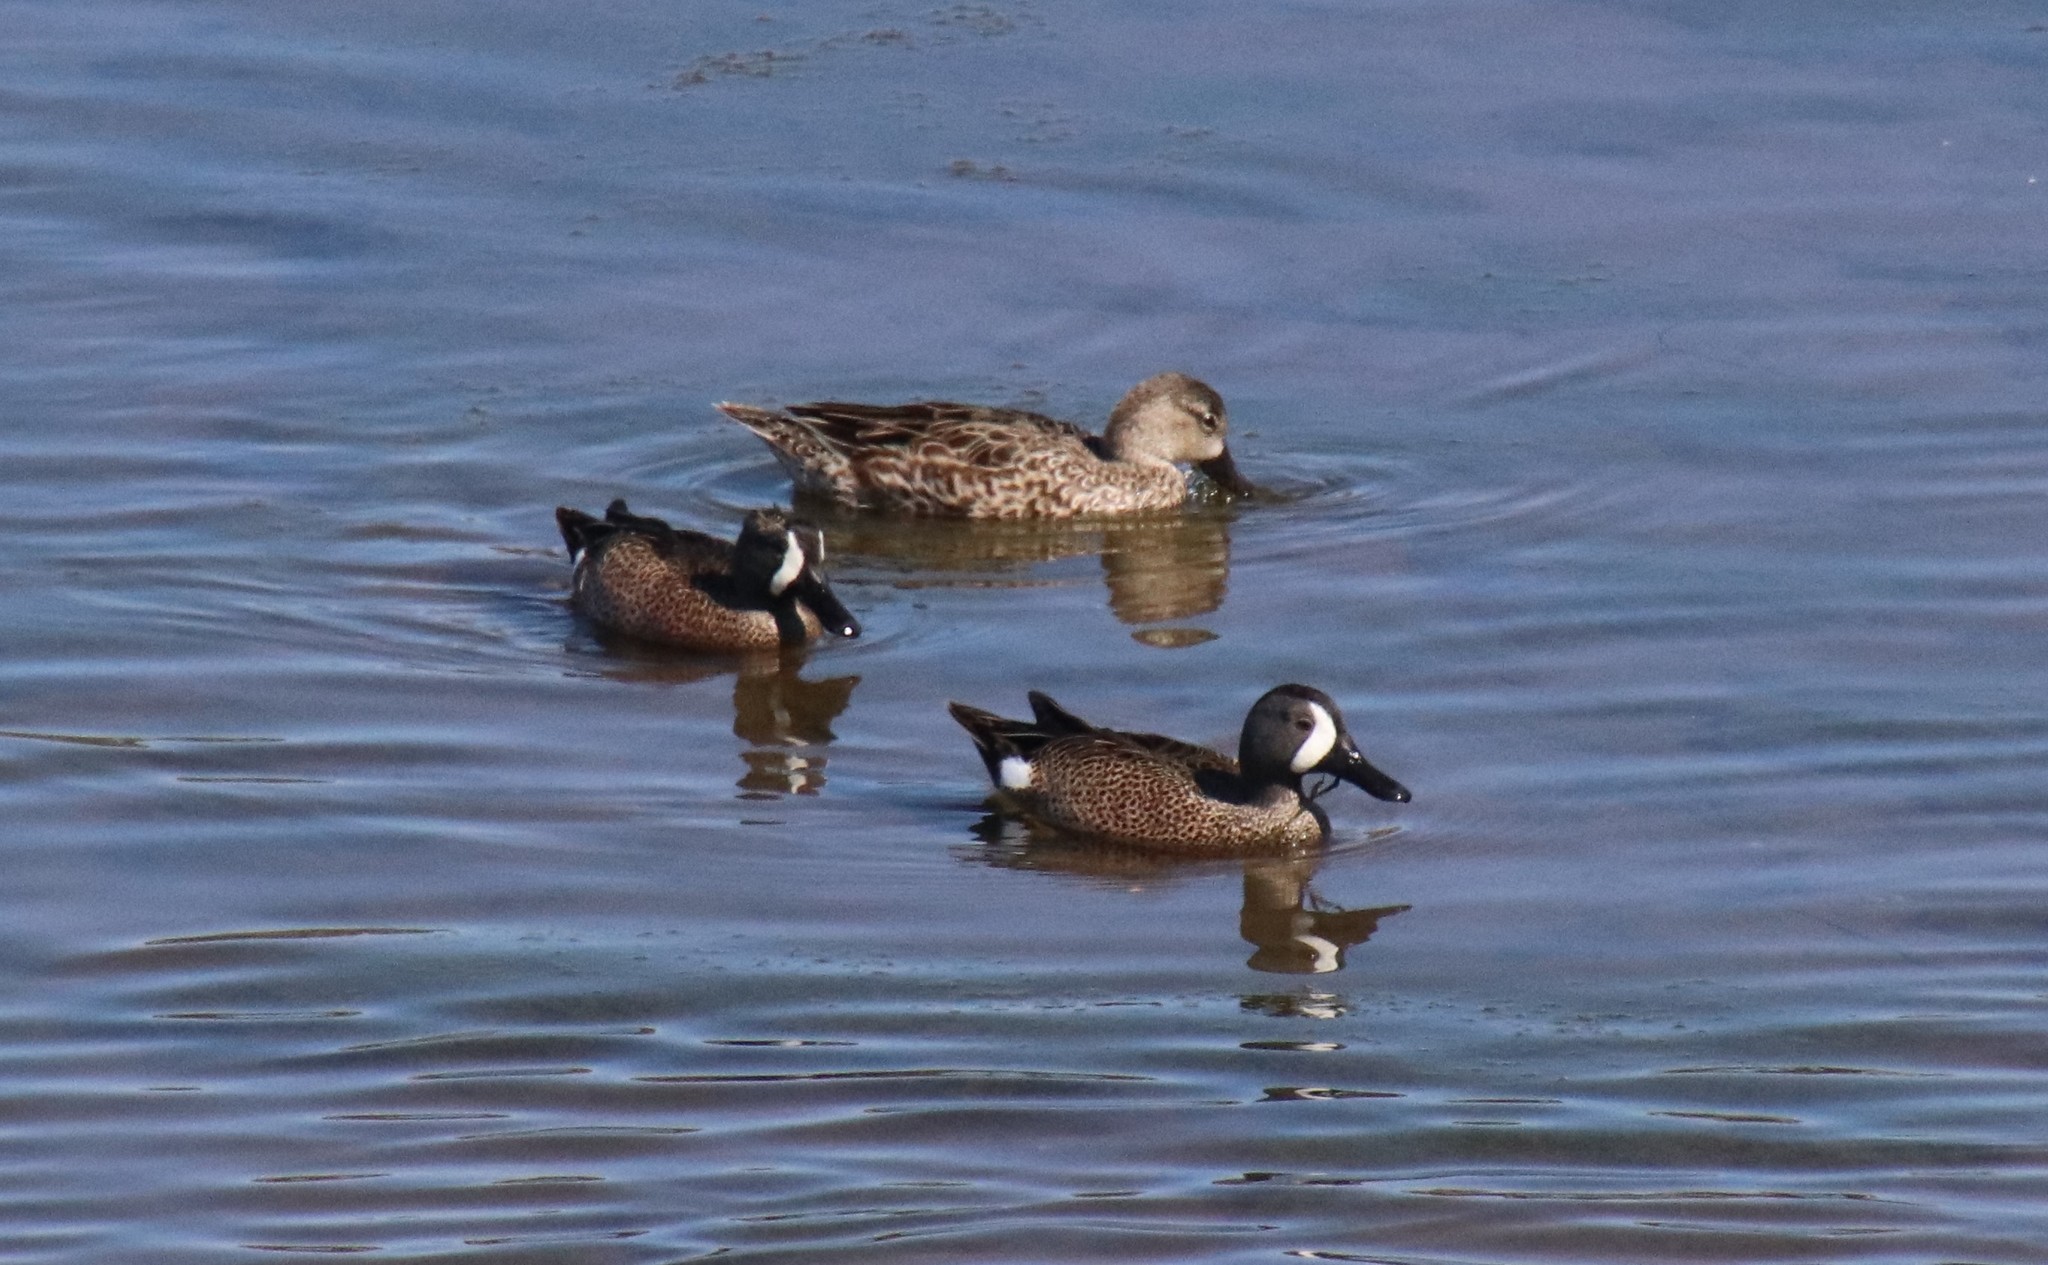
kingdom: Animalia
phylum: Chordata
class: Aves
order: Anseriformes
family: Anatidae
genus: Spatula
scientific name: Spatula discors
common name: Blue-winged teal
